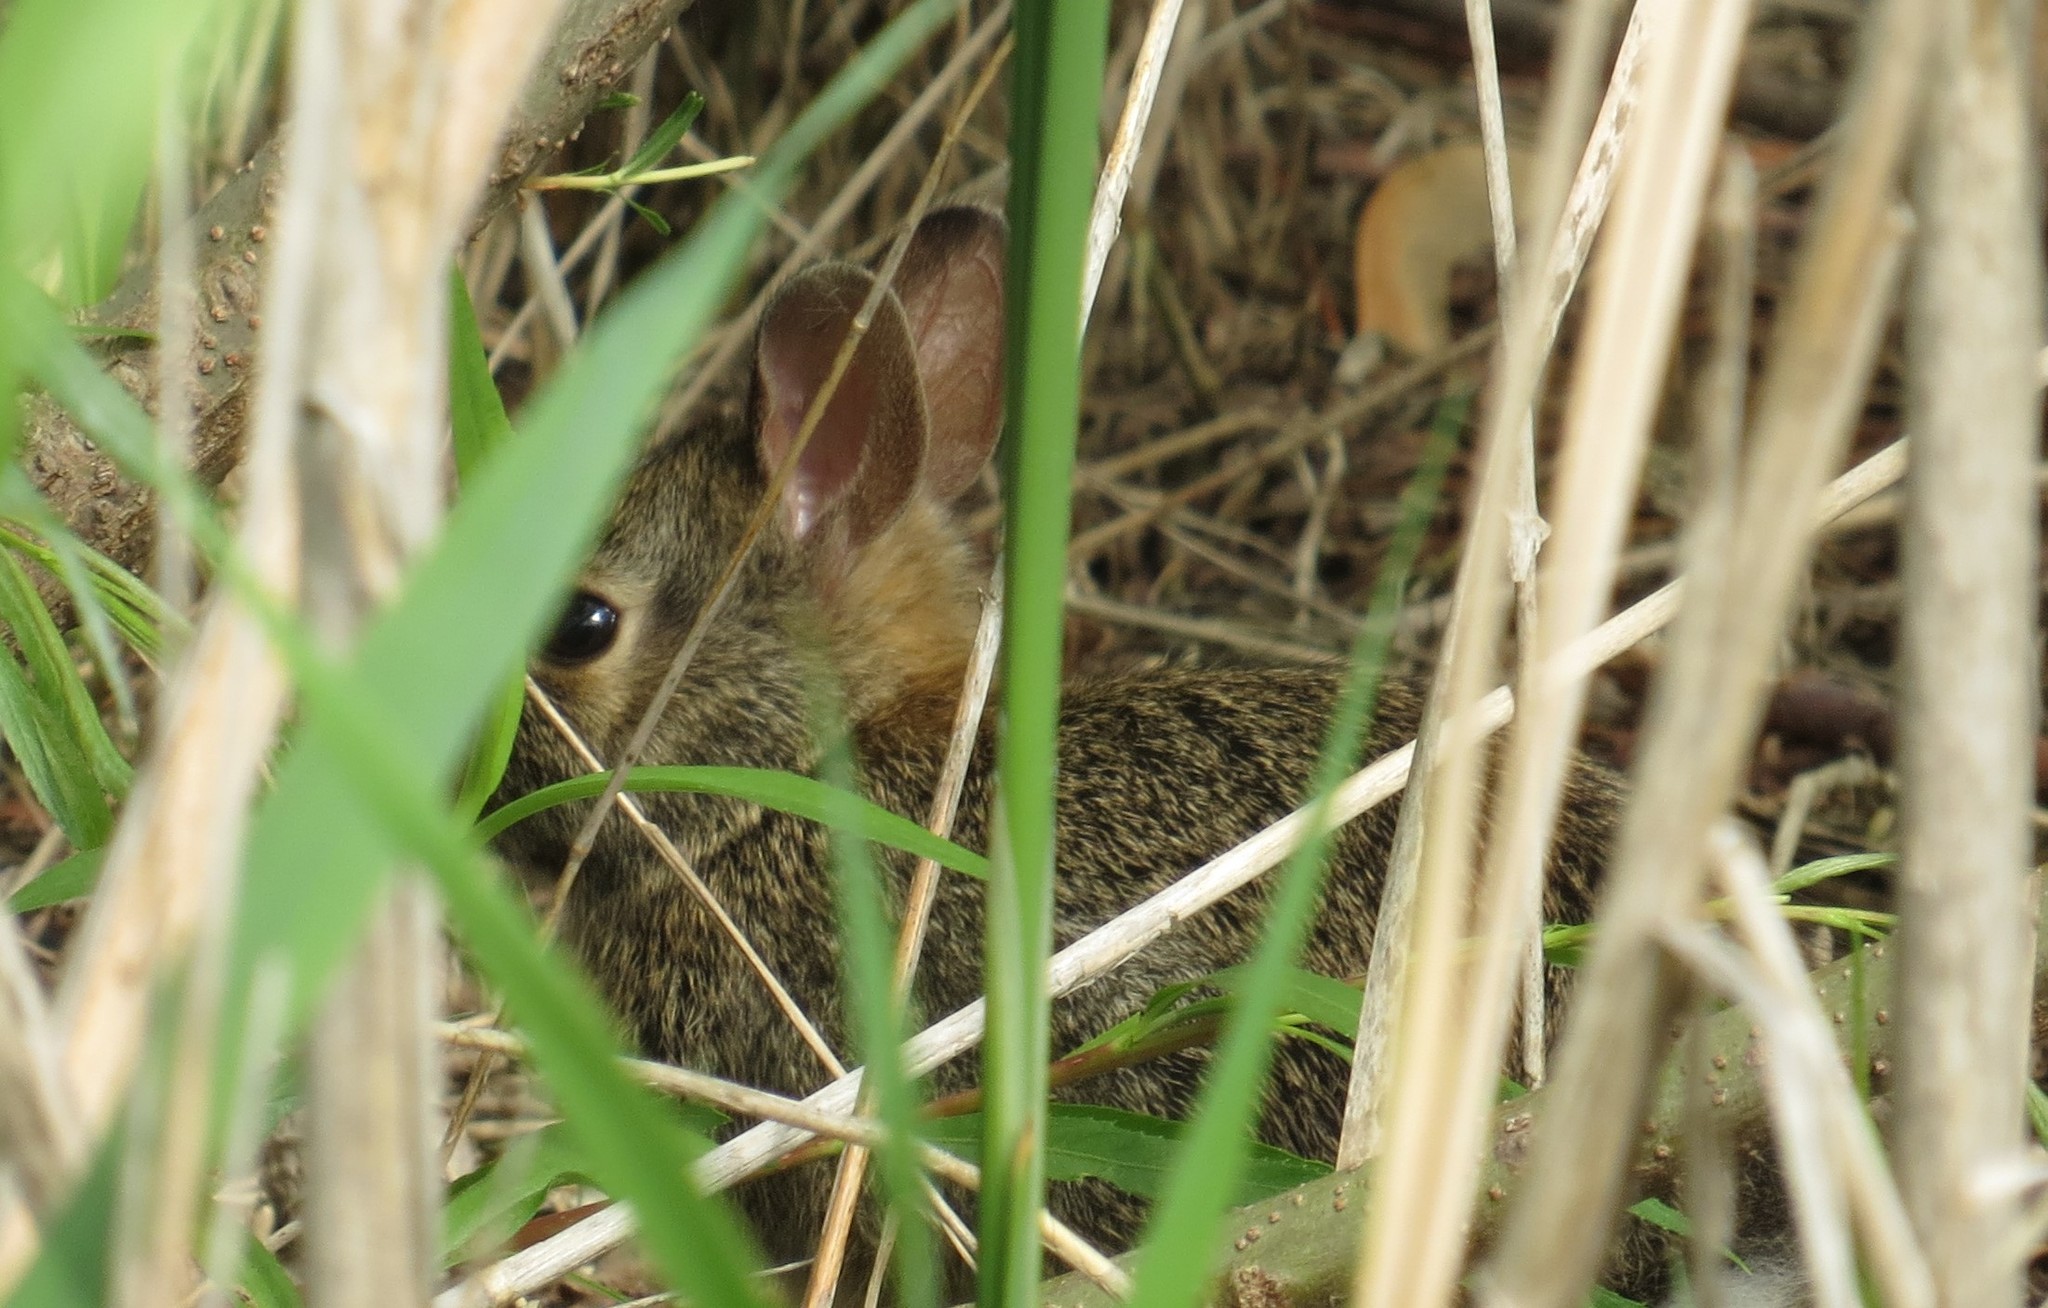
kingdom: Animalia
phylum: Chordata
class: Mammalia
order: Lagomorpha
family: Leporidae
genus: Sylvilagus
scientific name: Sylvilagus floridanus
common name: Eastern cottontail
